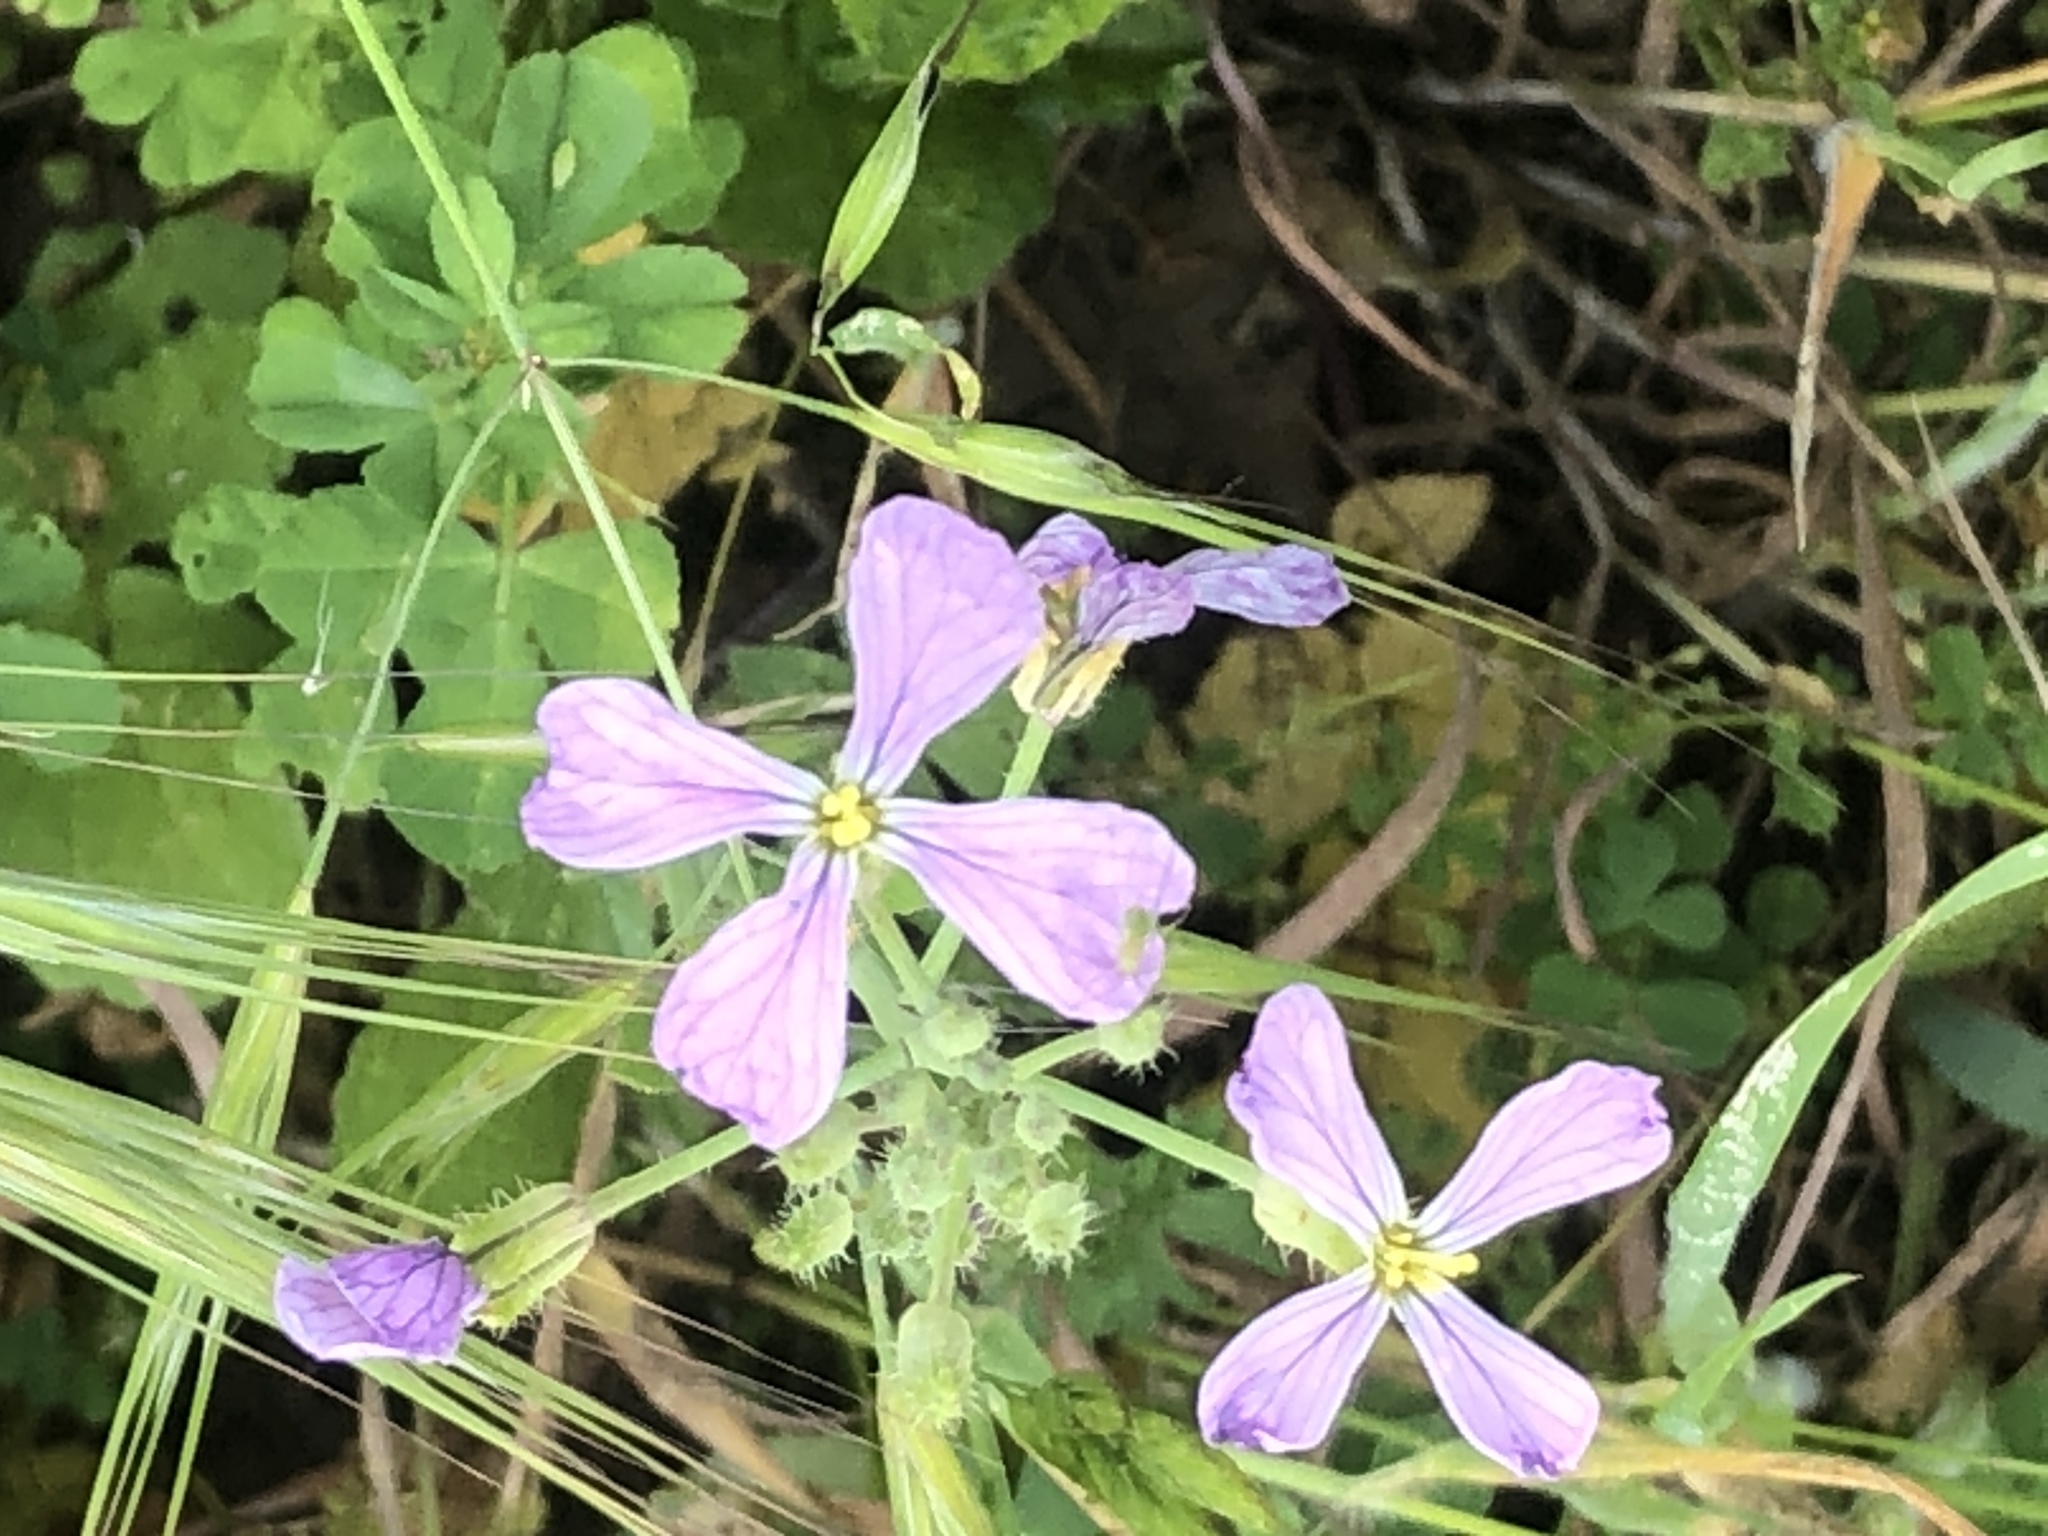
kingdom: Plantae
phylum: Tracheophyta
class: Magnoliopsida
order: Brassicales
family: Brassicaceae
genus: Raphanus
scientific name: Raphanus sativus
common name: Cultivated radish
